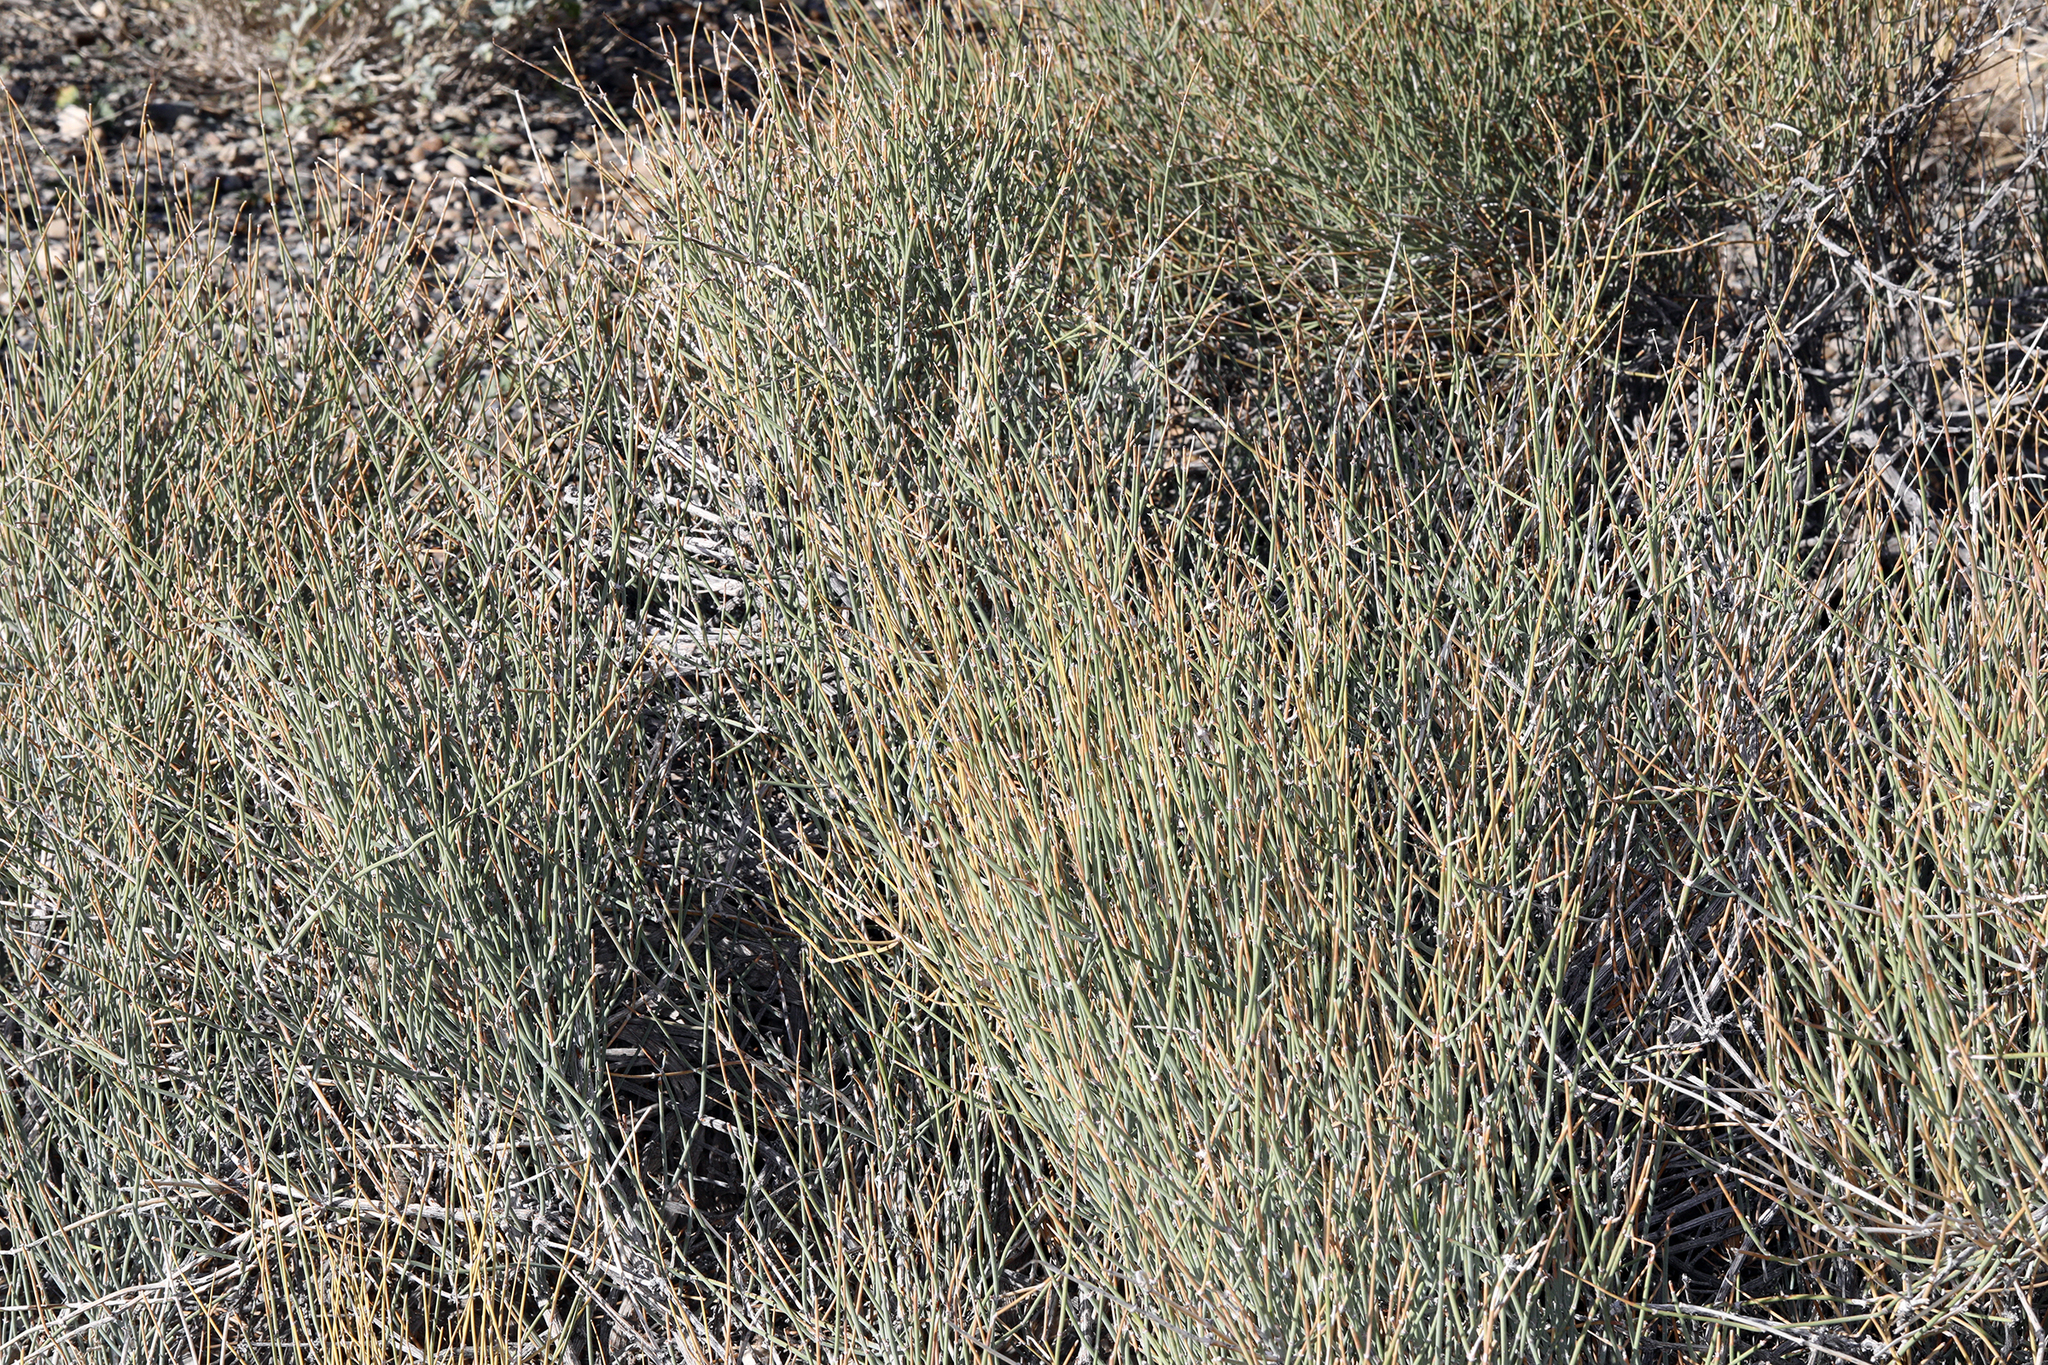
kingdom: Plantae
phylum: Tracheophyta
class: Gnetopsida
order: Ephedrales
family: Ephedraceae
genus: Ephedra
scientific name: Ephedra nevadensis
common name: Gray ephedra
